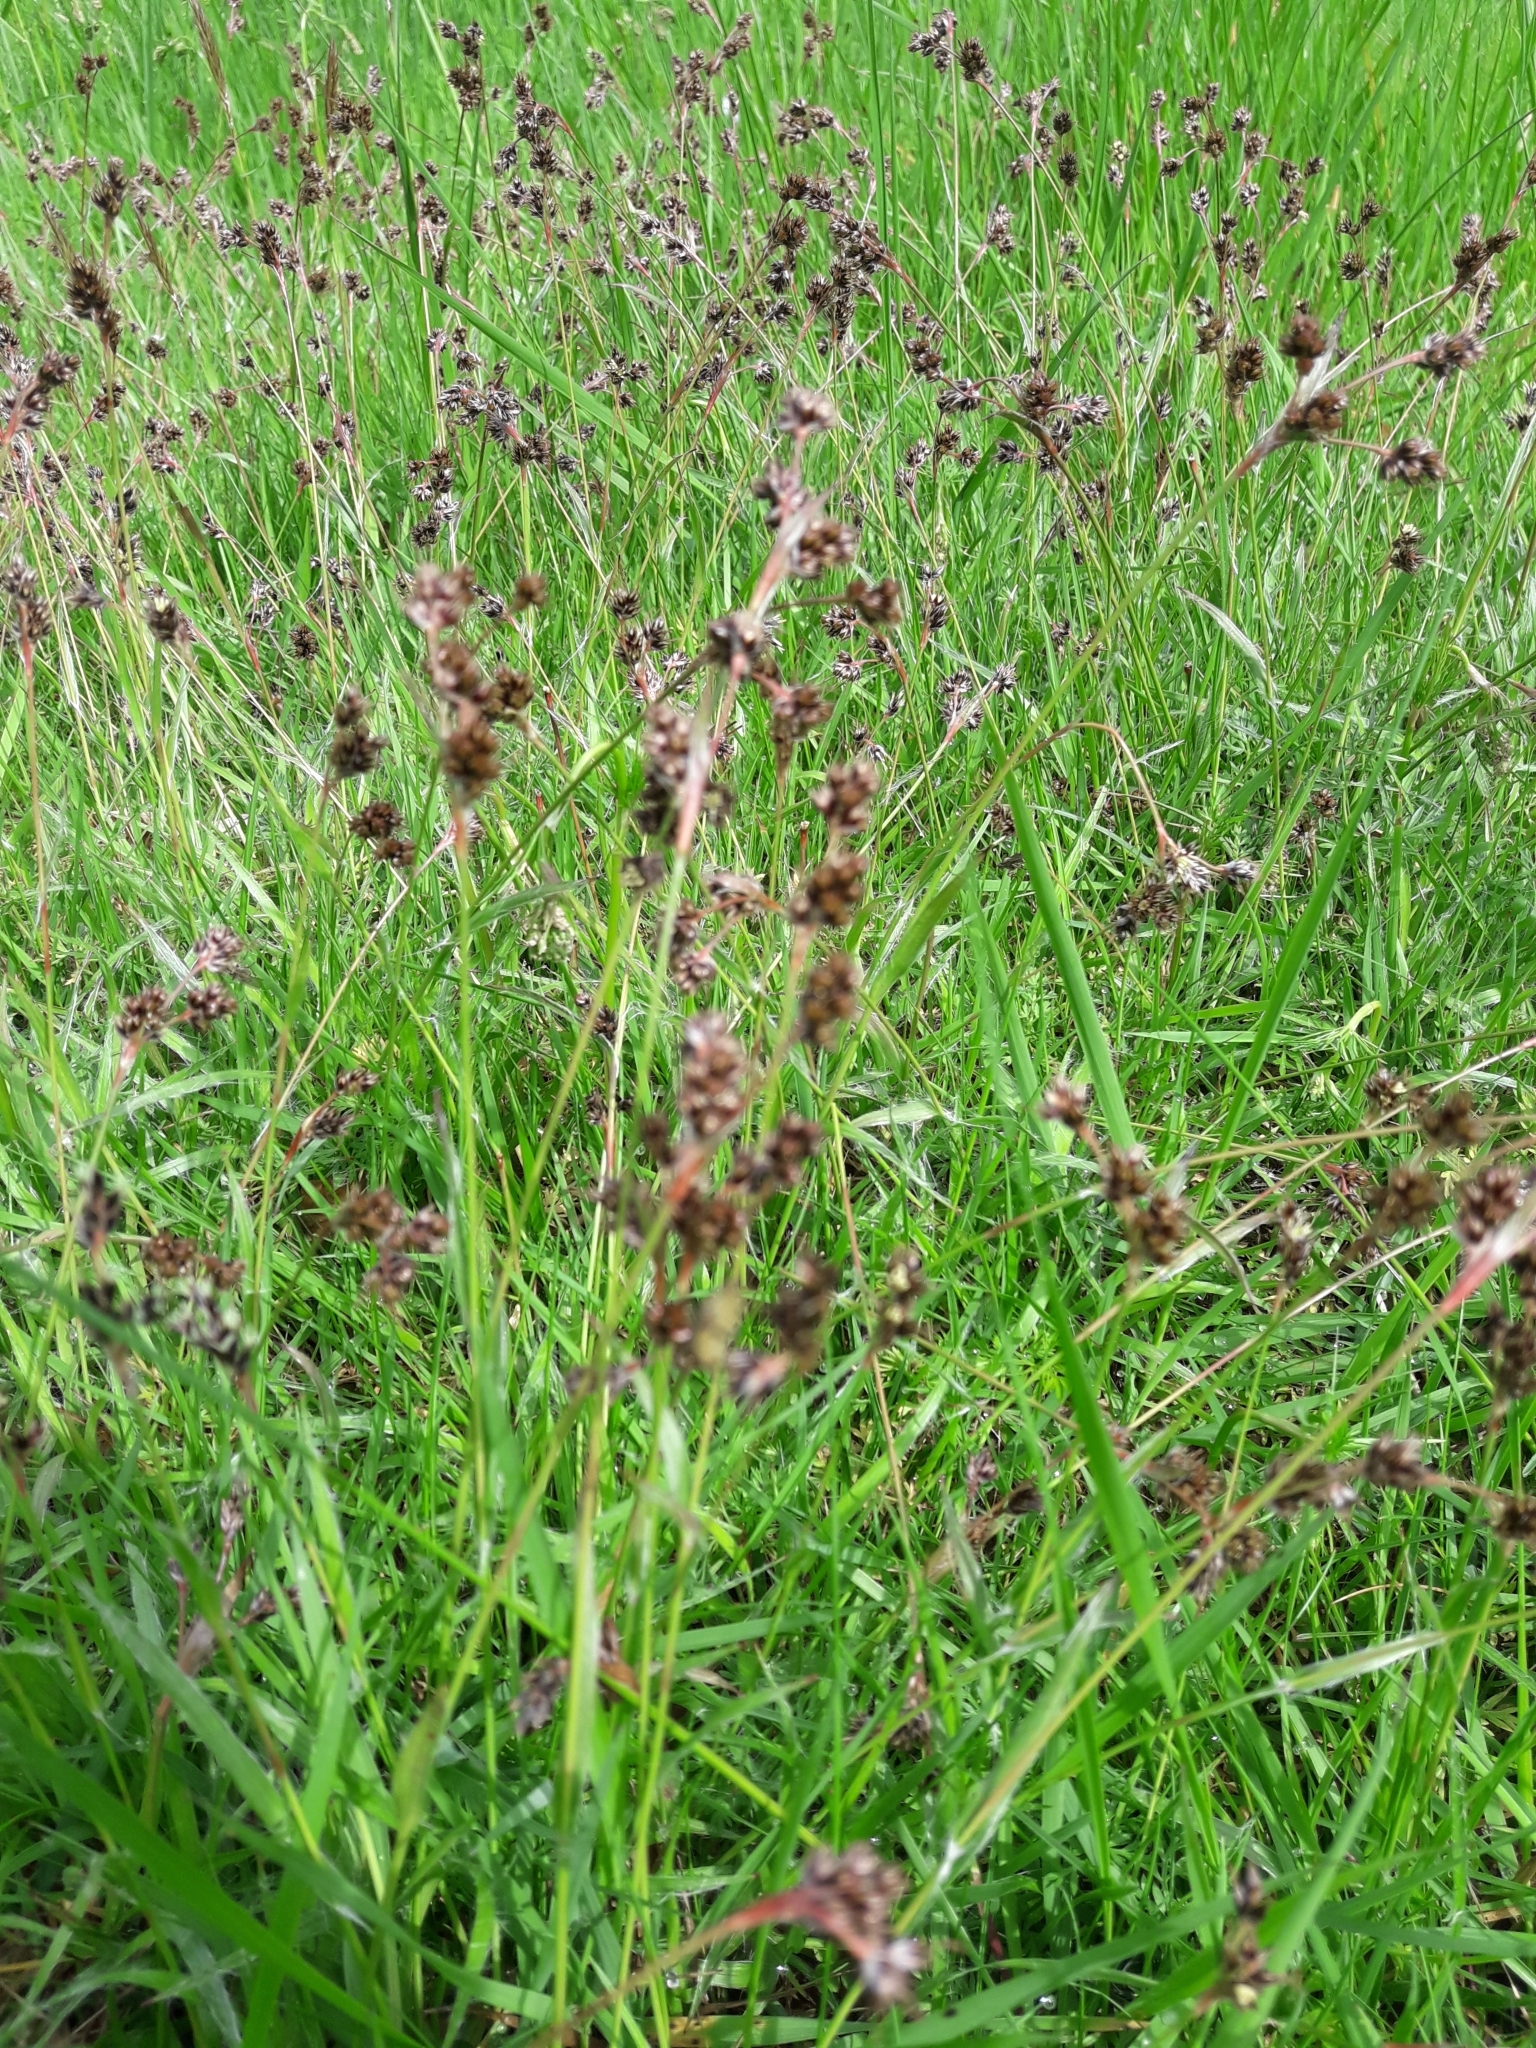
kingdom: Plantae
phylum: Tracheophyta
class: Liliopsida
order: Poales
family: Juncaceae
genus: Luzula
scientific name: Luzula campestris
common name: Field wood-rush
